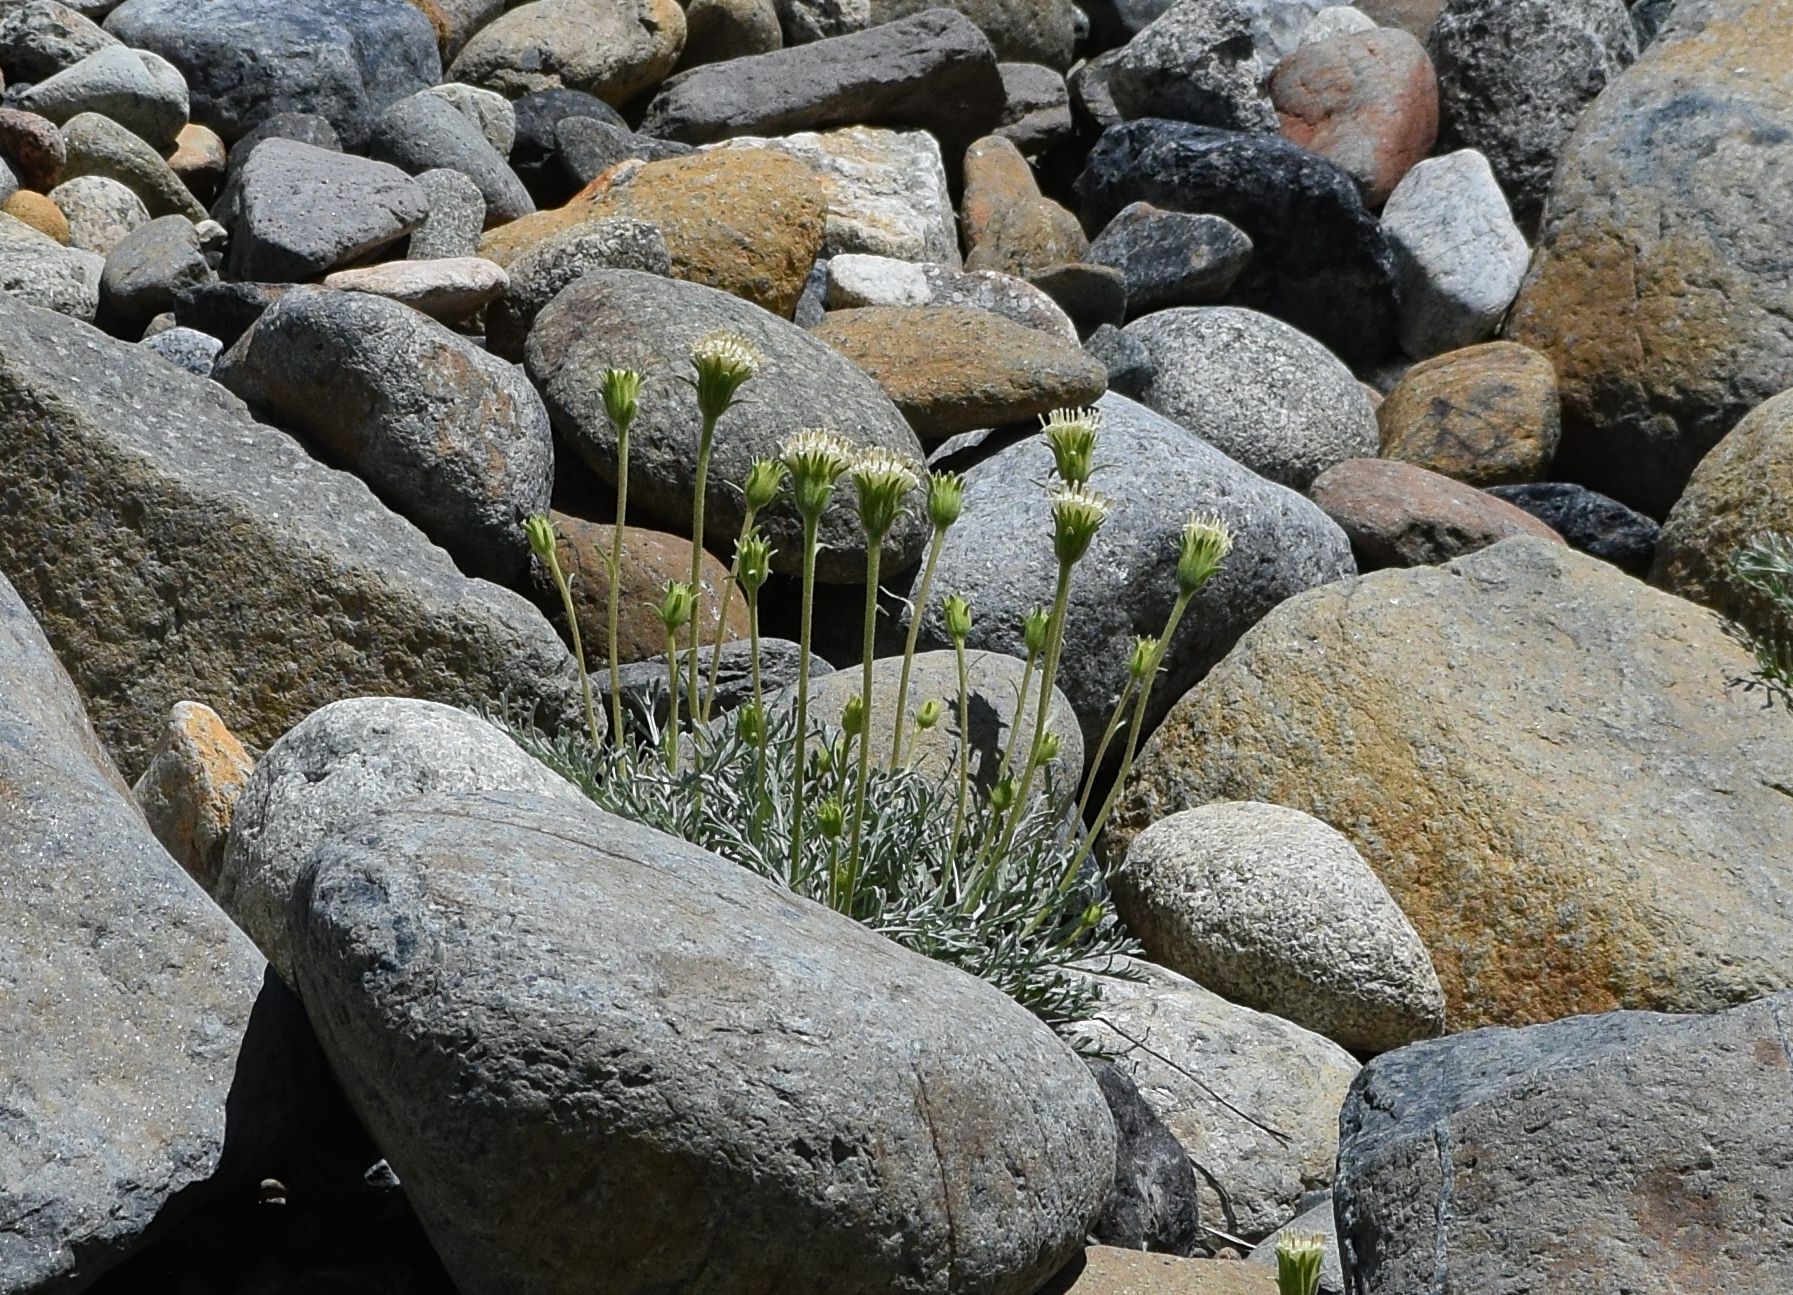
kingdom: Plantae
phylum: Tracheophyta
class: Magnoliopsida
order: Asterales
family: Asteraceae
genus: Chaenactis
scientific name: Chaenactis suffrutescens
